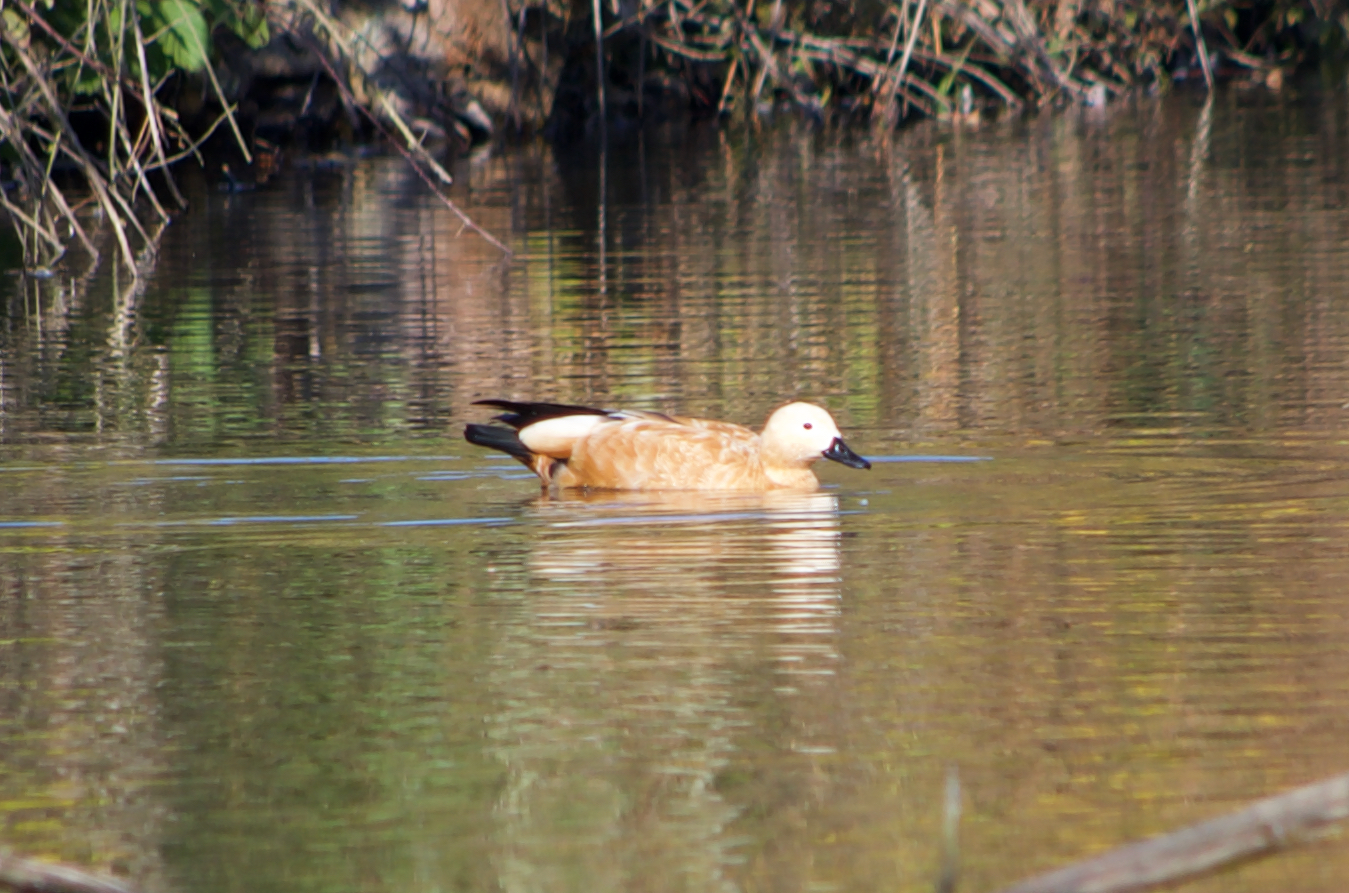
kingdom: Animalia
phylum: Chordata
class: Aves
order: Anseriformes
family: Anatidae
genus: Tadorna
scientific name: Tadorna ferruginea
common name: Ruddy shelduck
